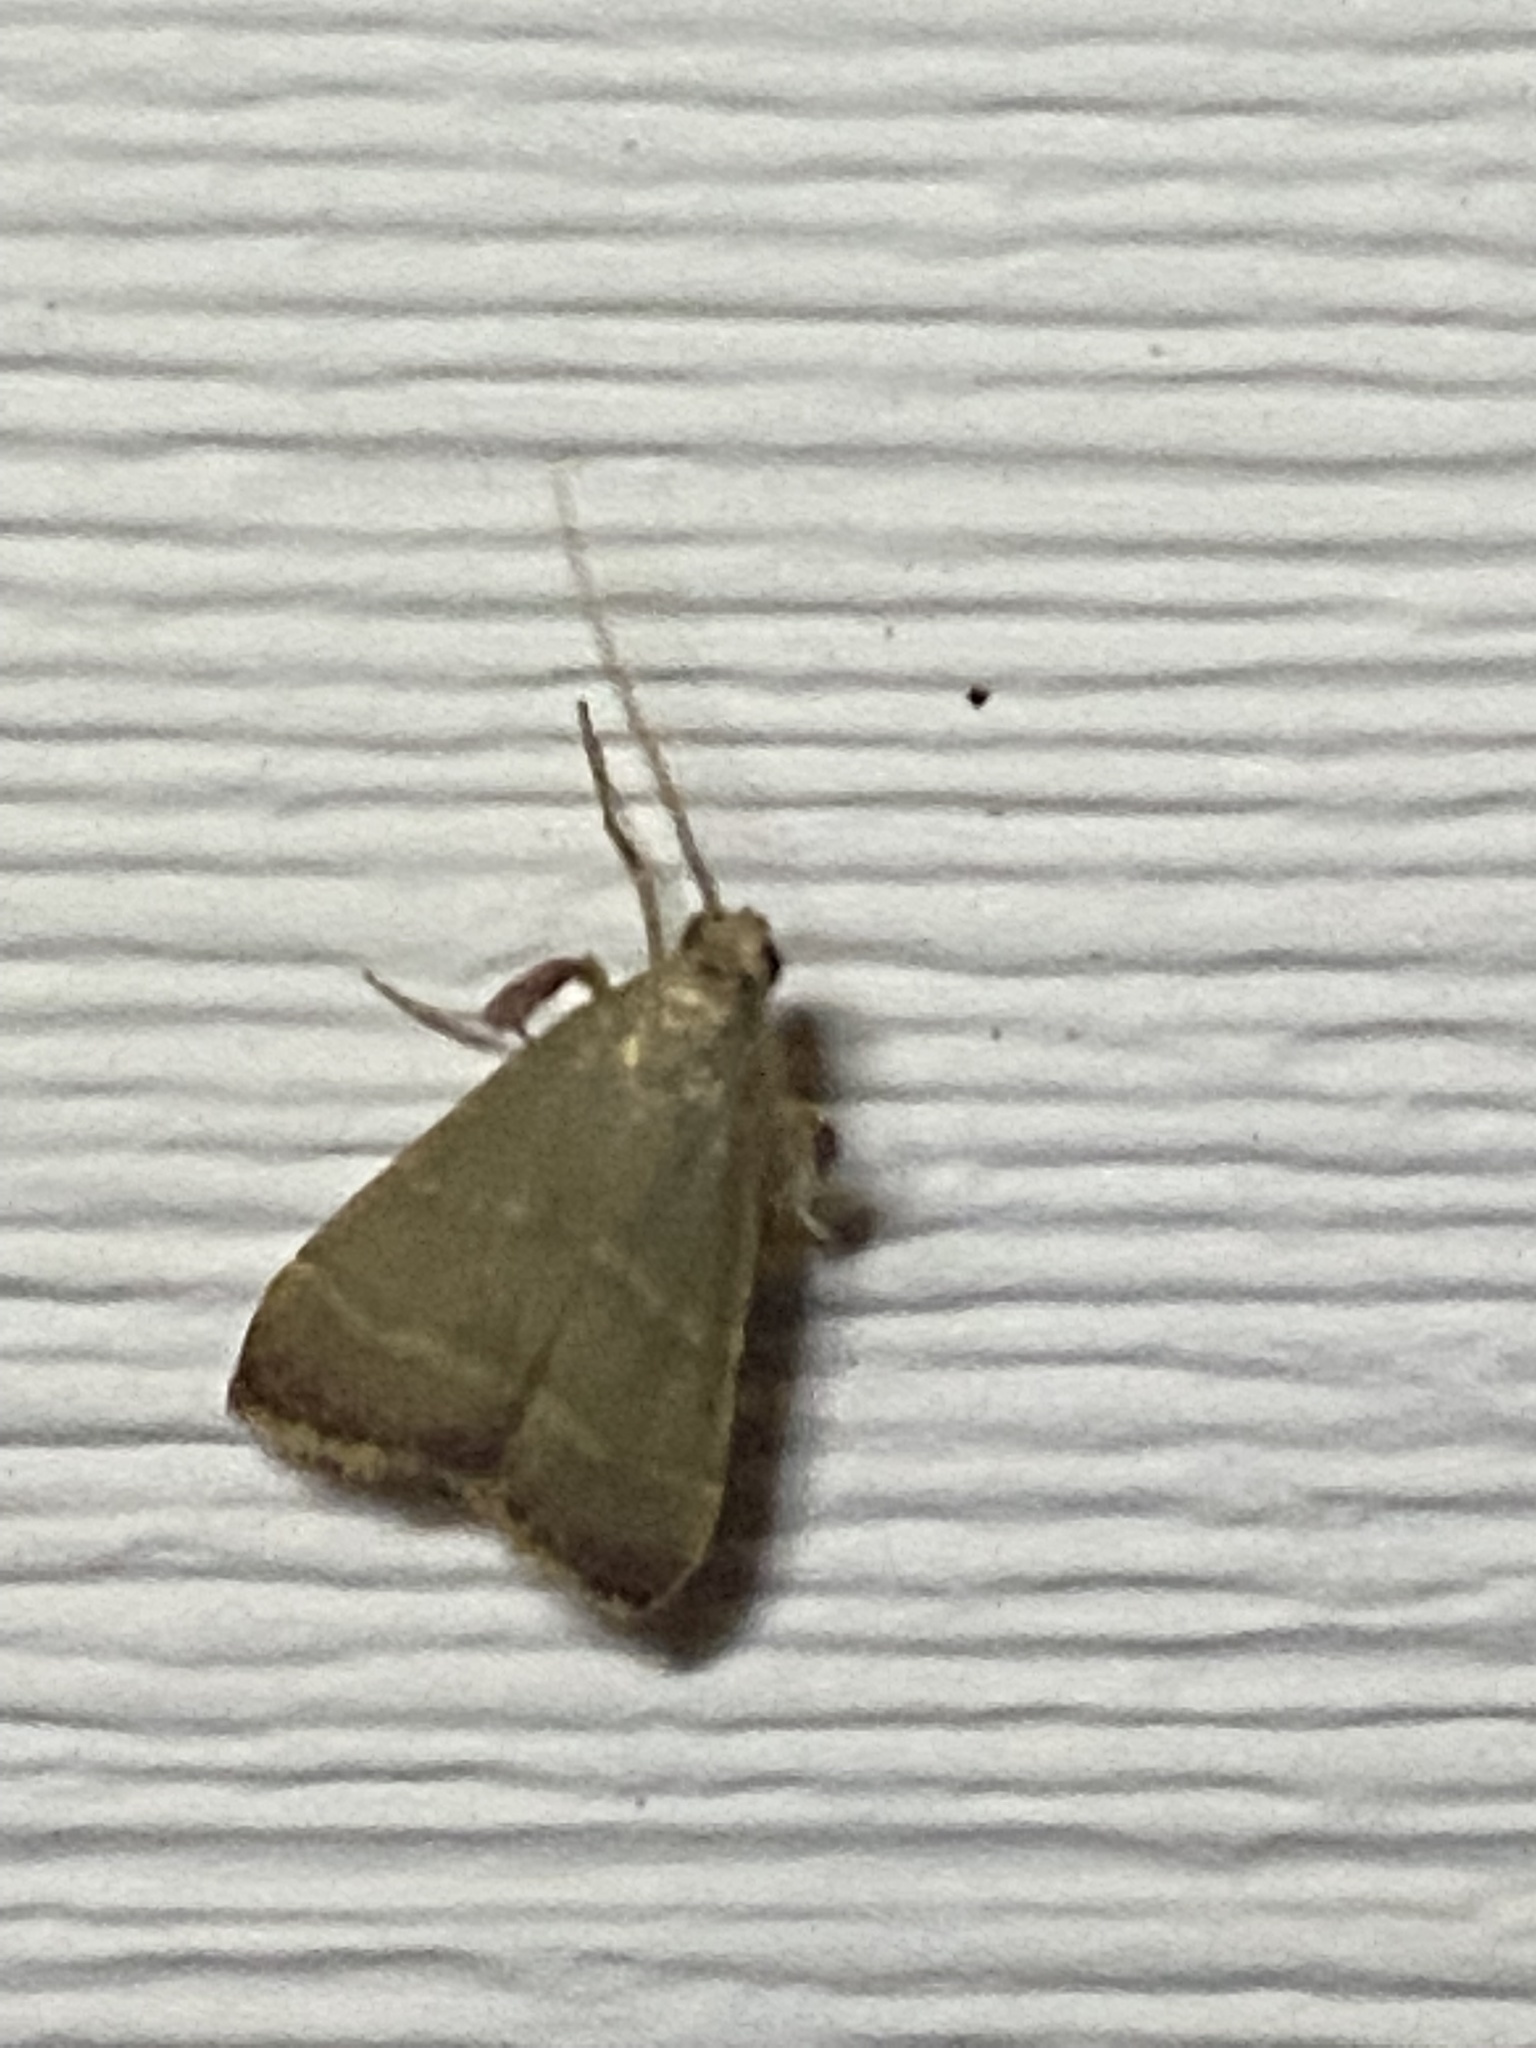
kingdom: Animalia
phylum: Arthropoda
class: Insecta
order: Lepidoptera
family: Pyralidae
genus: Arta
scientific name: Arta olivalis
